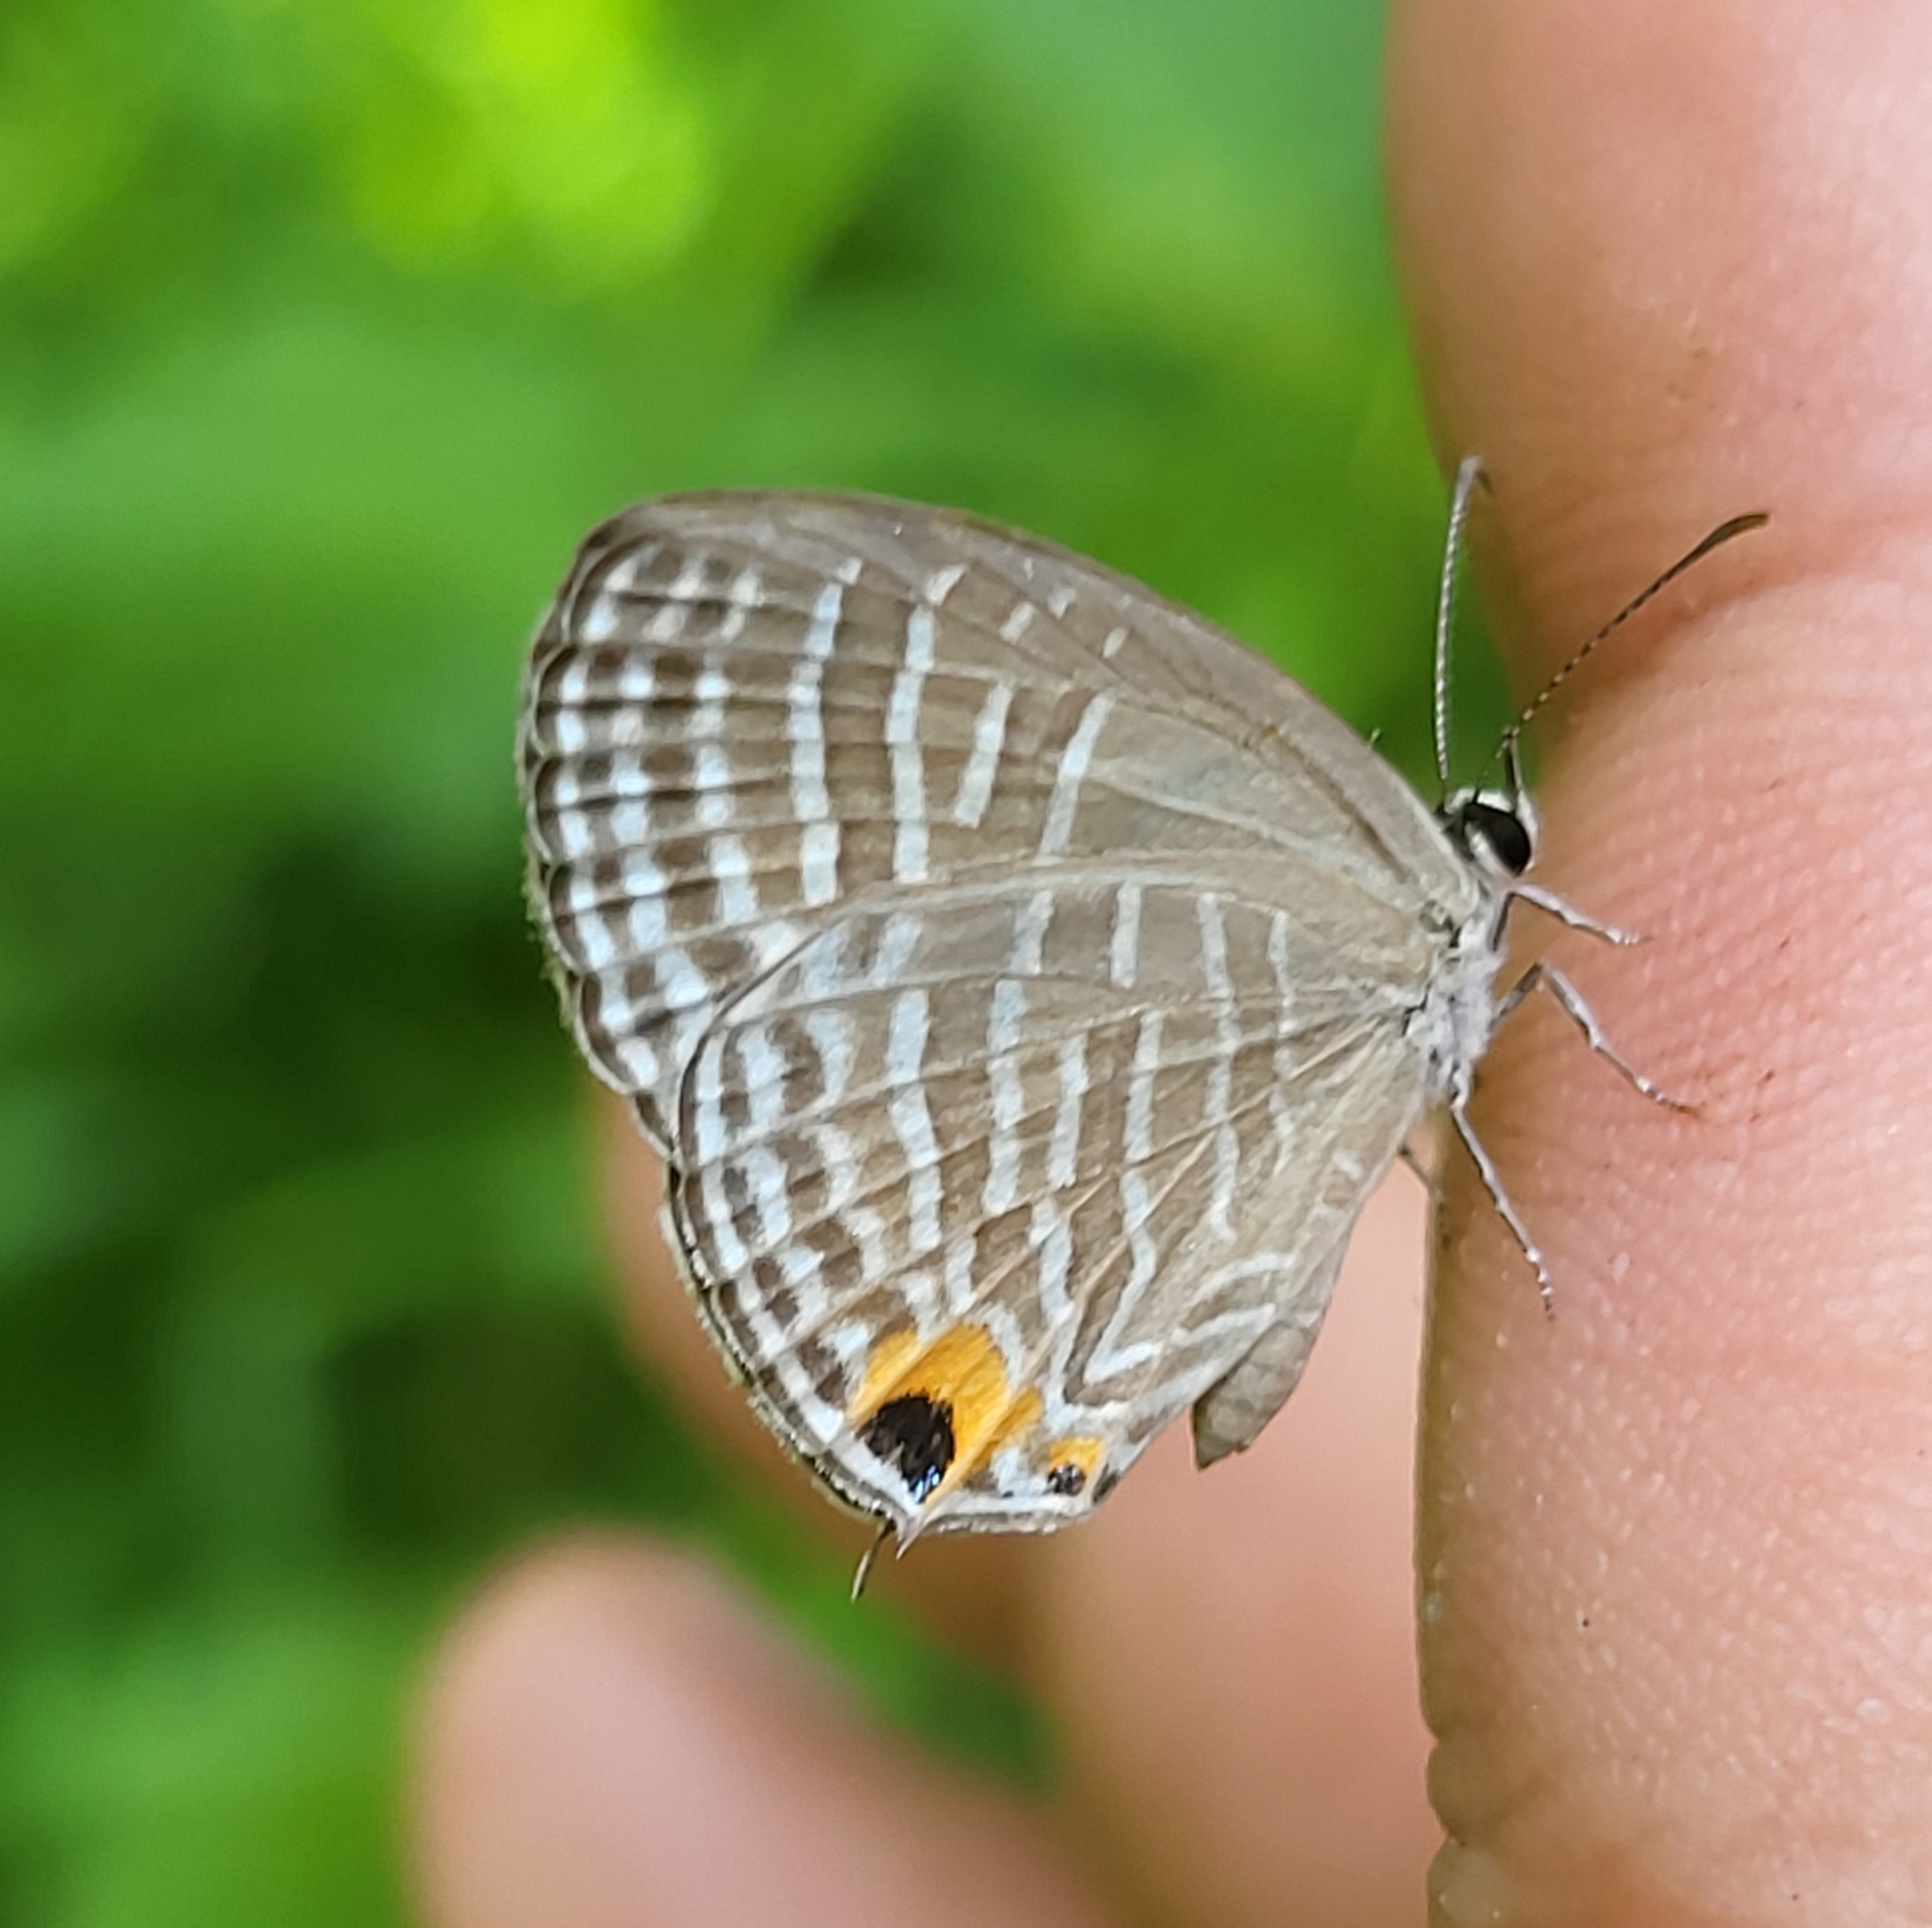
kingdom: Animalia
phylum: Arthropoda
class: Insecta
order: Lepidoptera
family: Lycaenidae
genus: Jamides
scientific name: Jamides celeno
